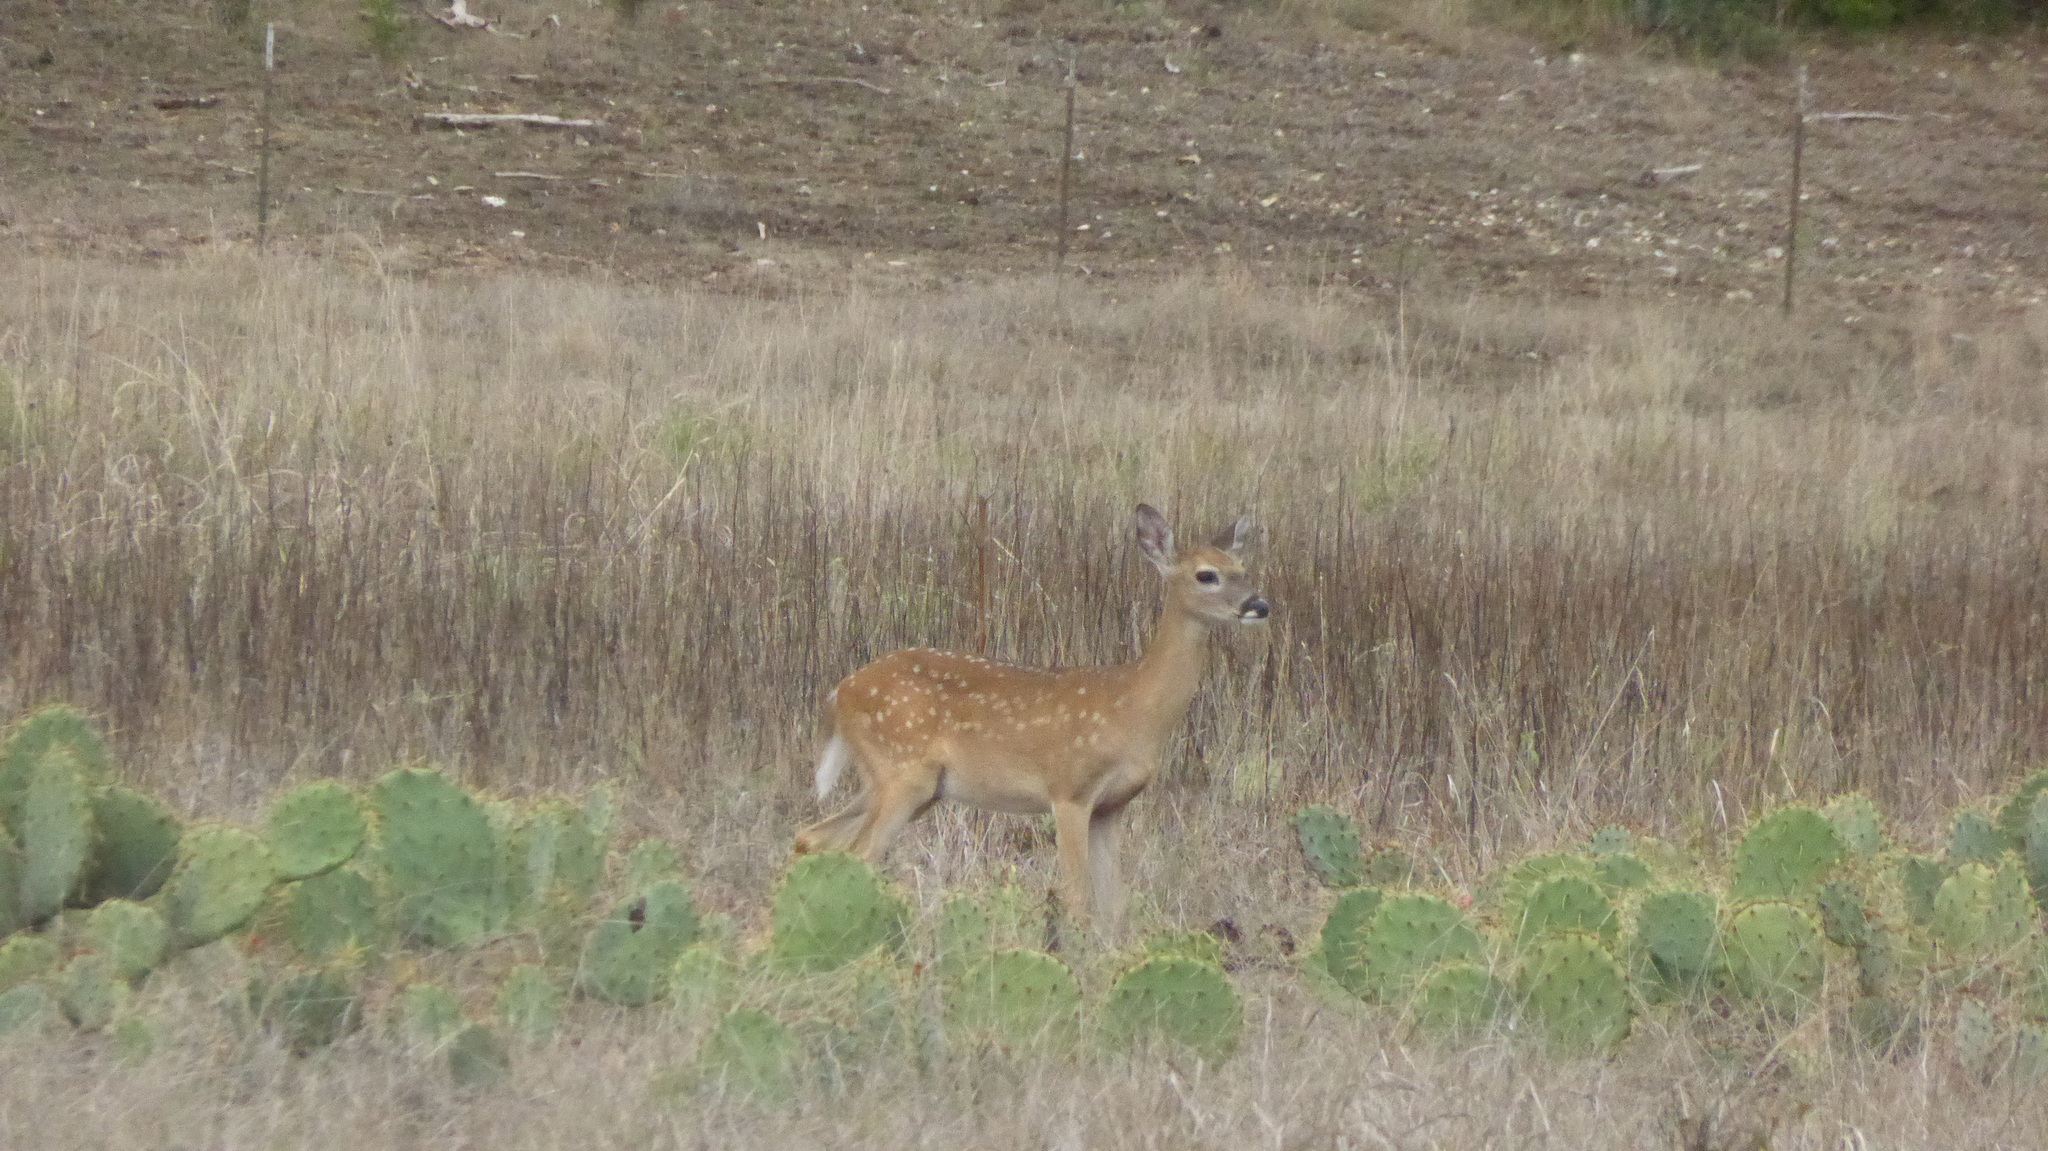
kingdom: Animalia
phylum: Chordata
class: Mammalia
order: Artiodactyla
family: Cervidae
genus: Odocoileus
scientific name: Odocoileus virginianus
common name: White-tailed deer
